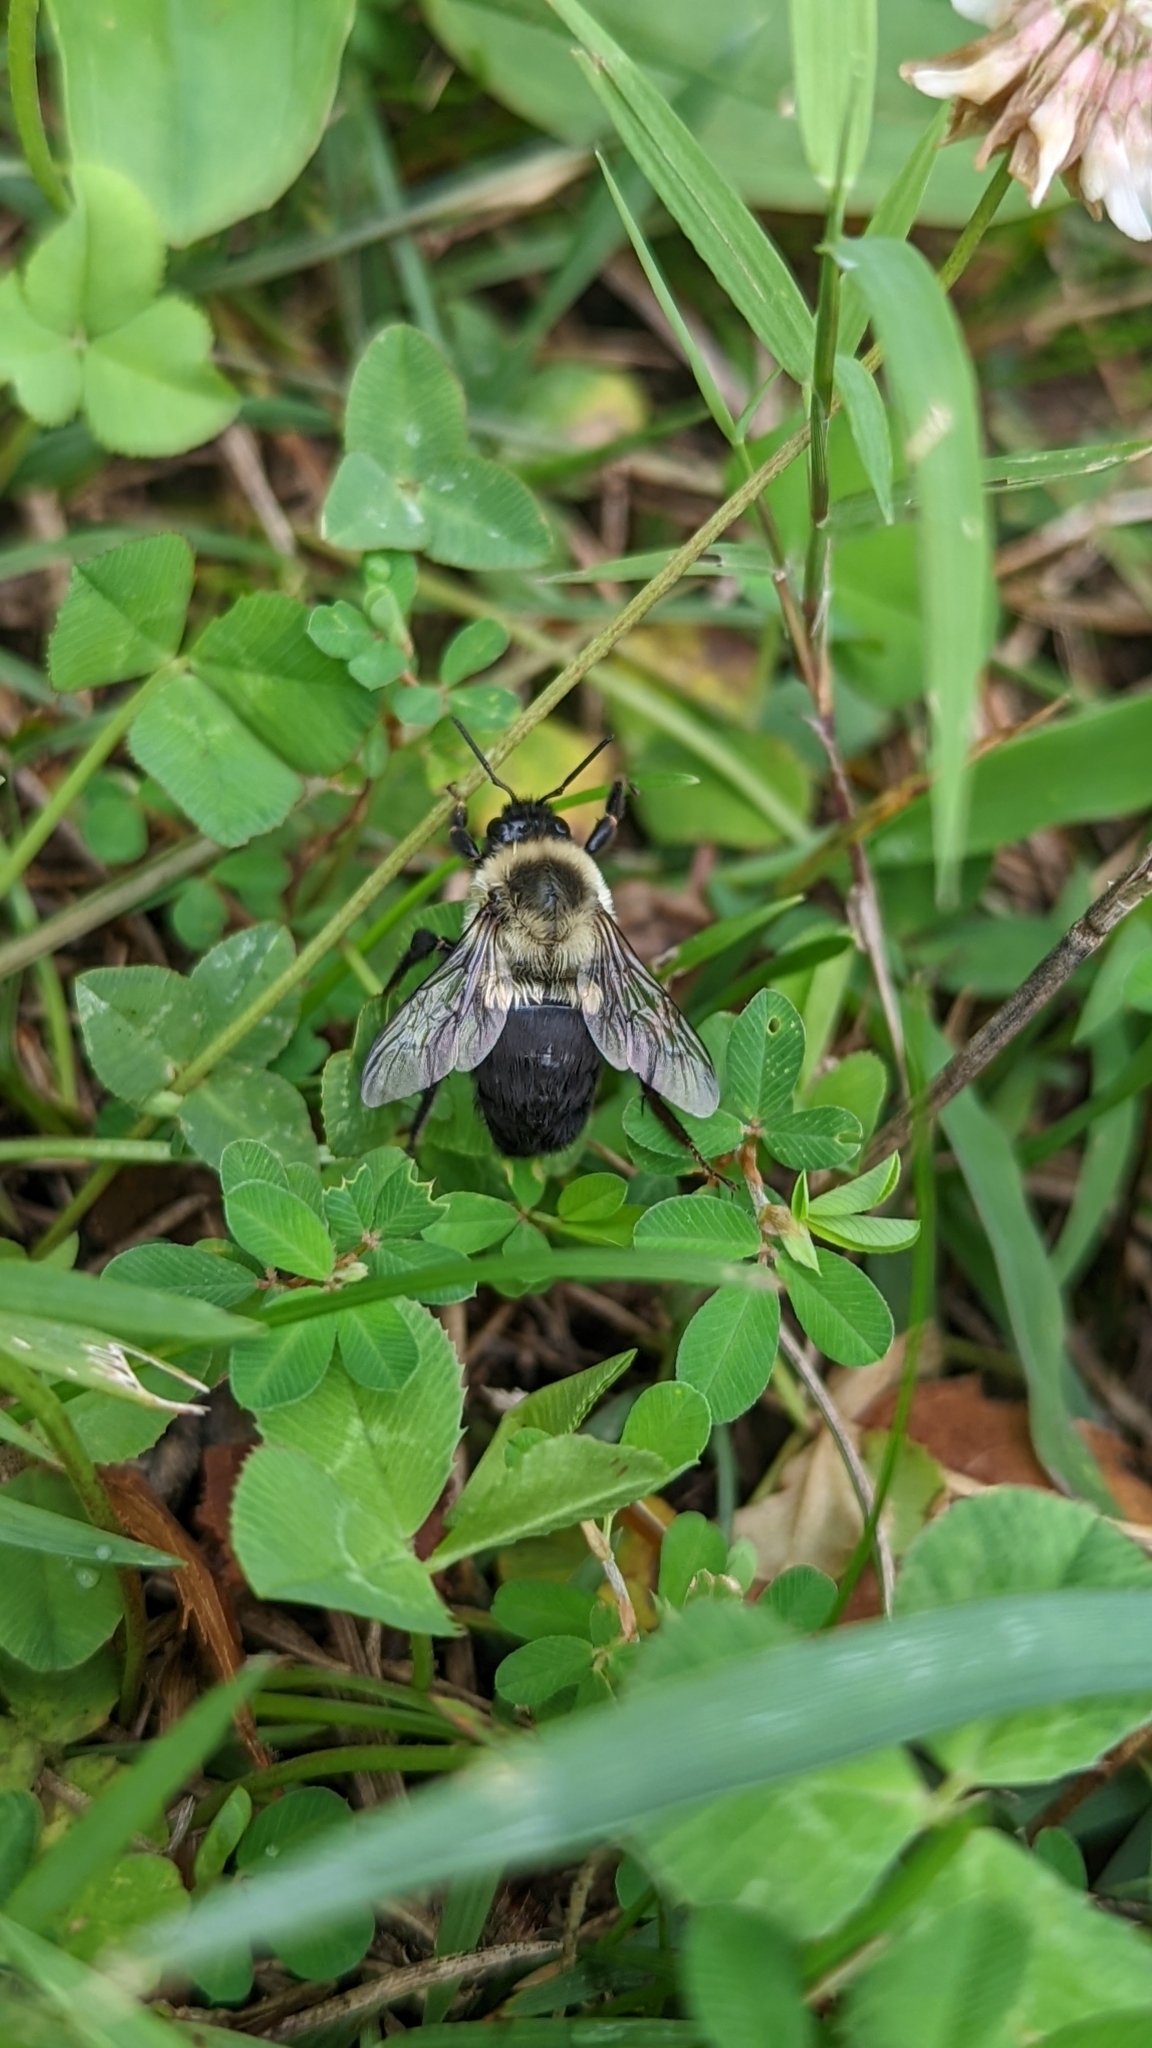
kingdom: Animalia
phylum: Arthropoda
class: Insecta
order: Hymenoptera
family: Apidae
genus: Bombus
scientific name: Bombus impatiens
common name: Common eastern bumble bee
